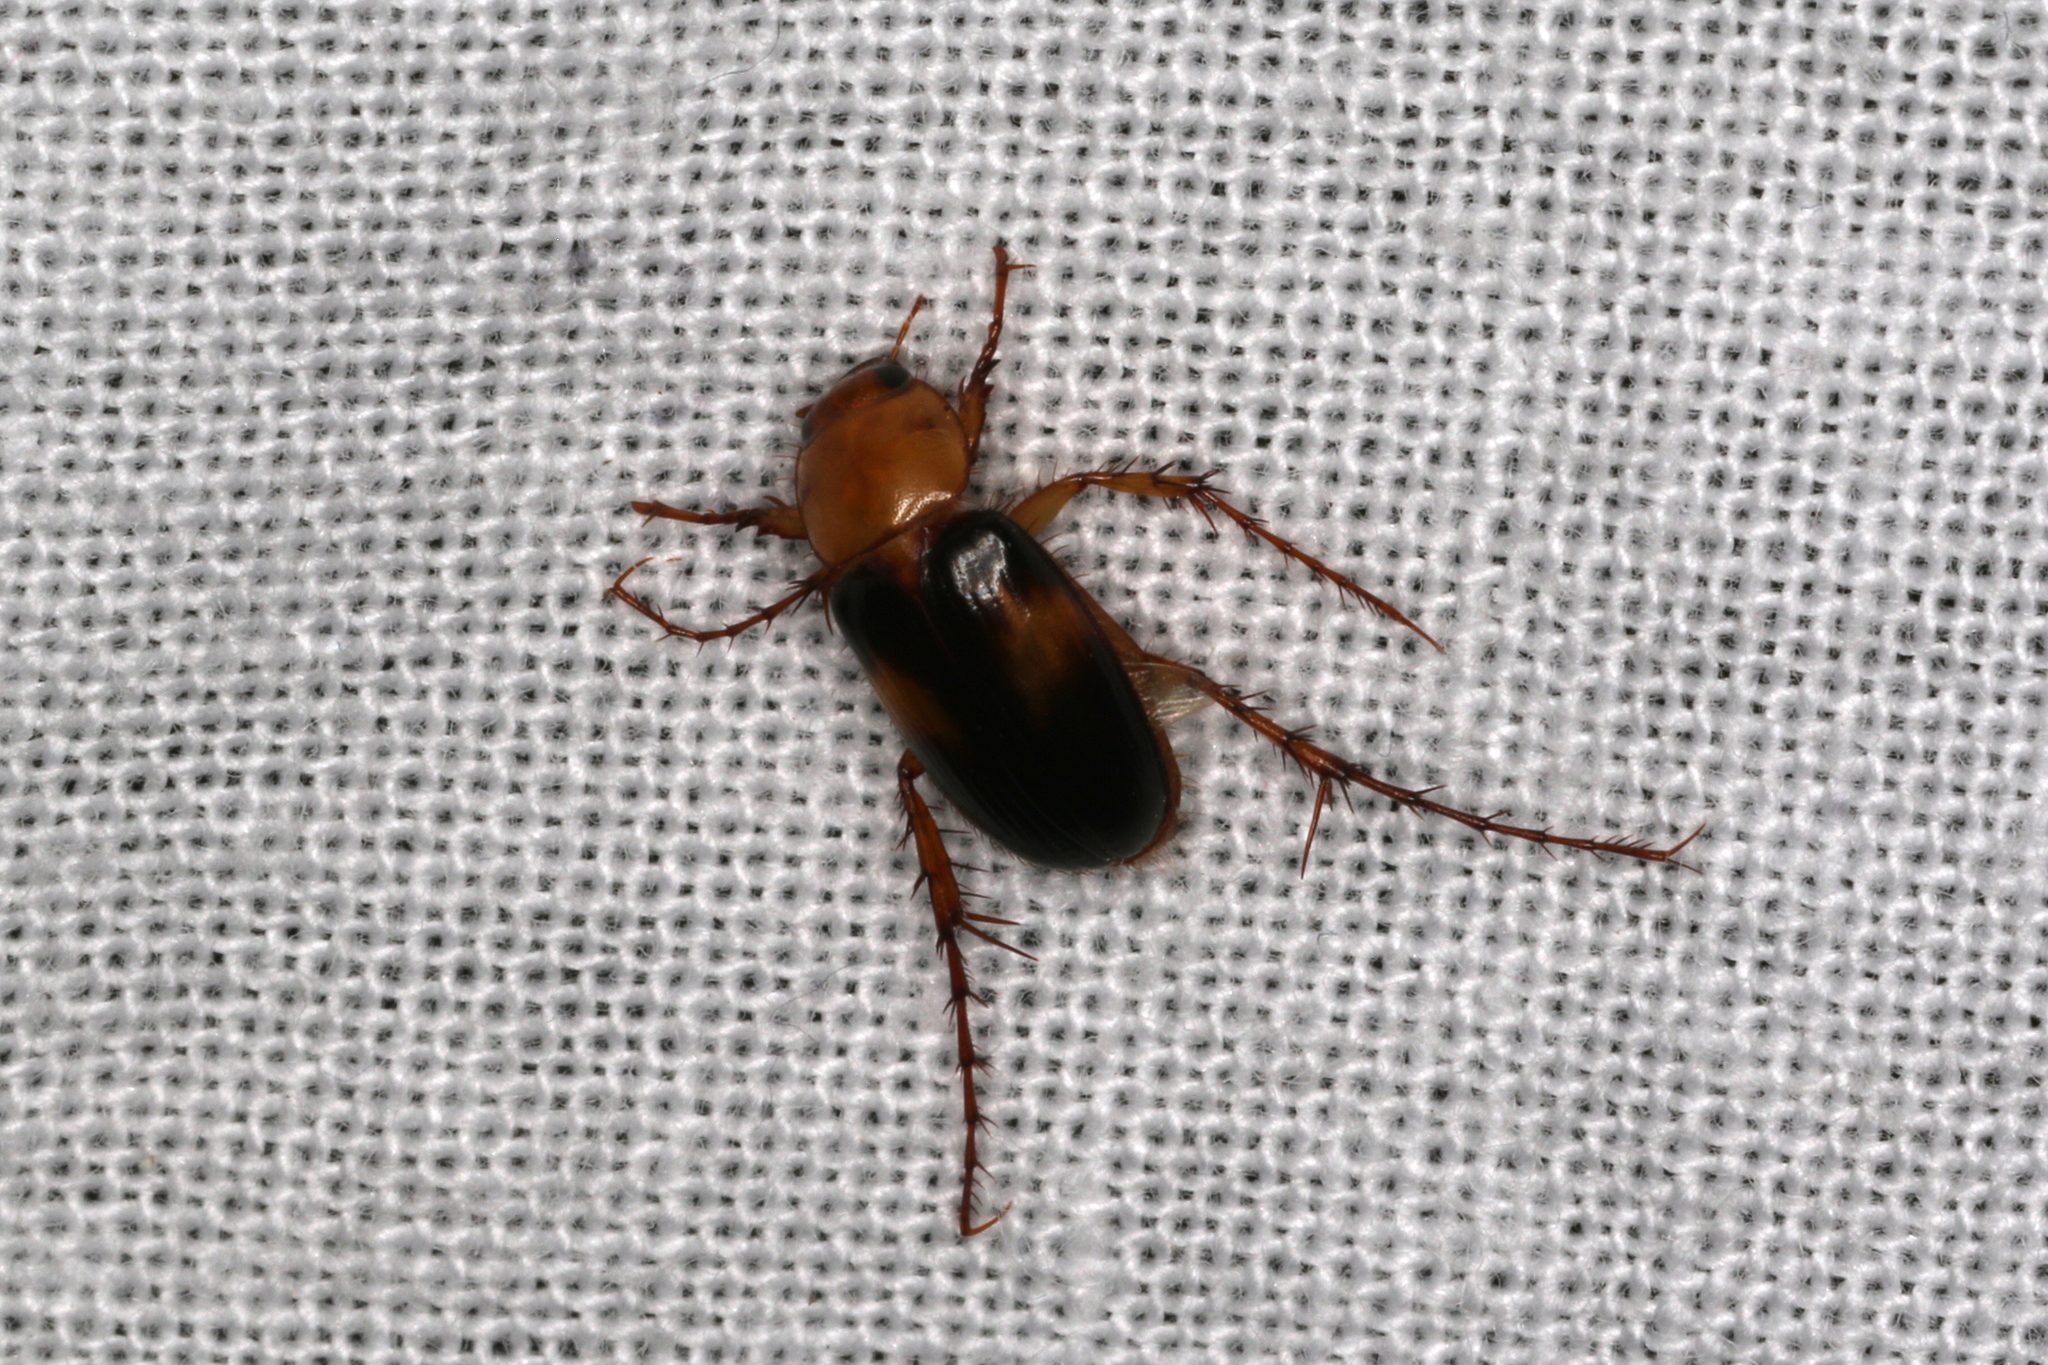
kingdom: Animalia
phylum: Arthropoda
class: Insecta
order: Coleoptera
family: Scarabaeidae
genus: Phyllotocus
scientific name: Phyllotocus bimaculatus
